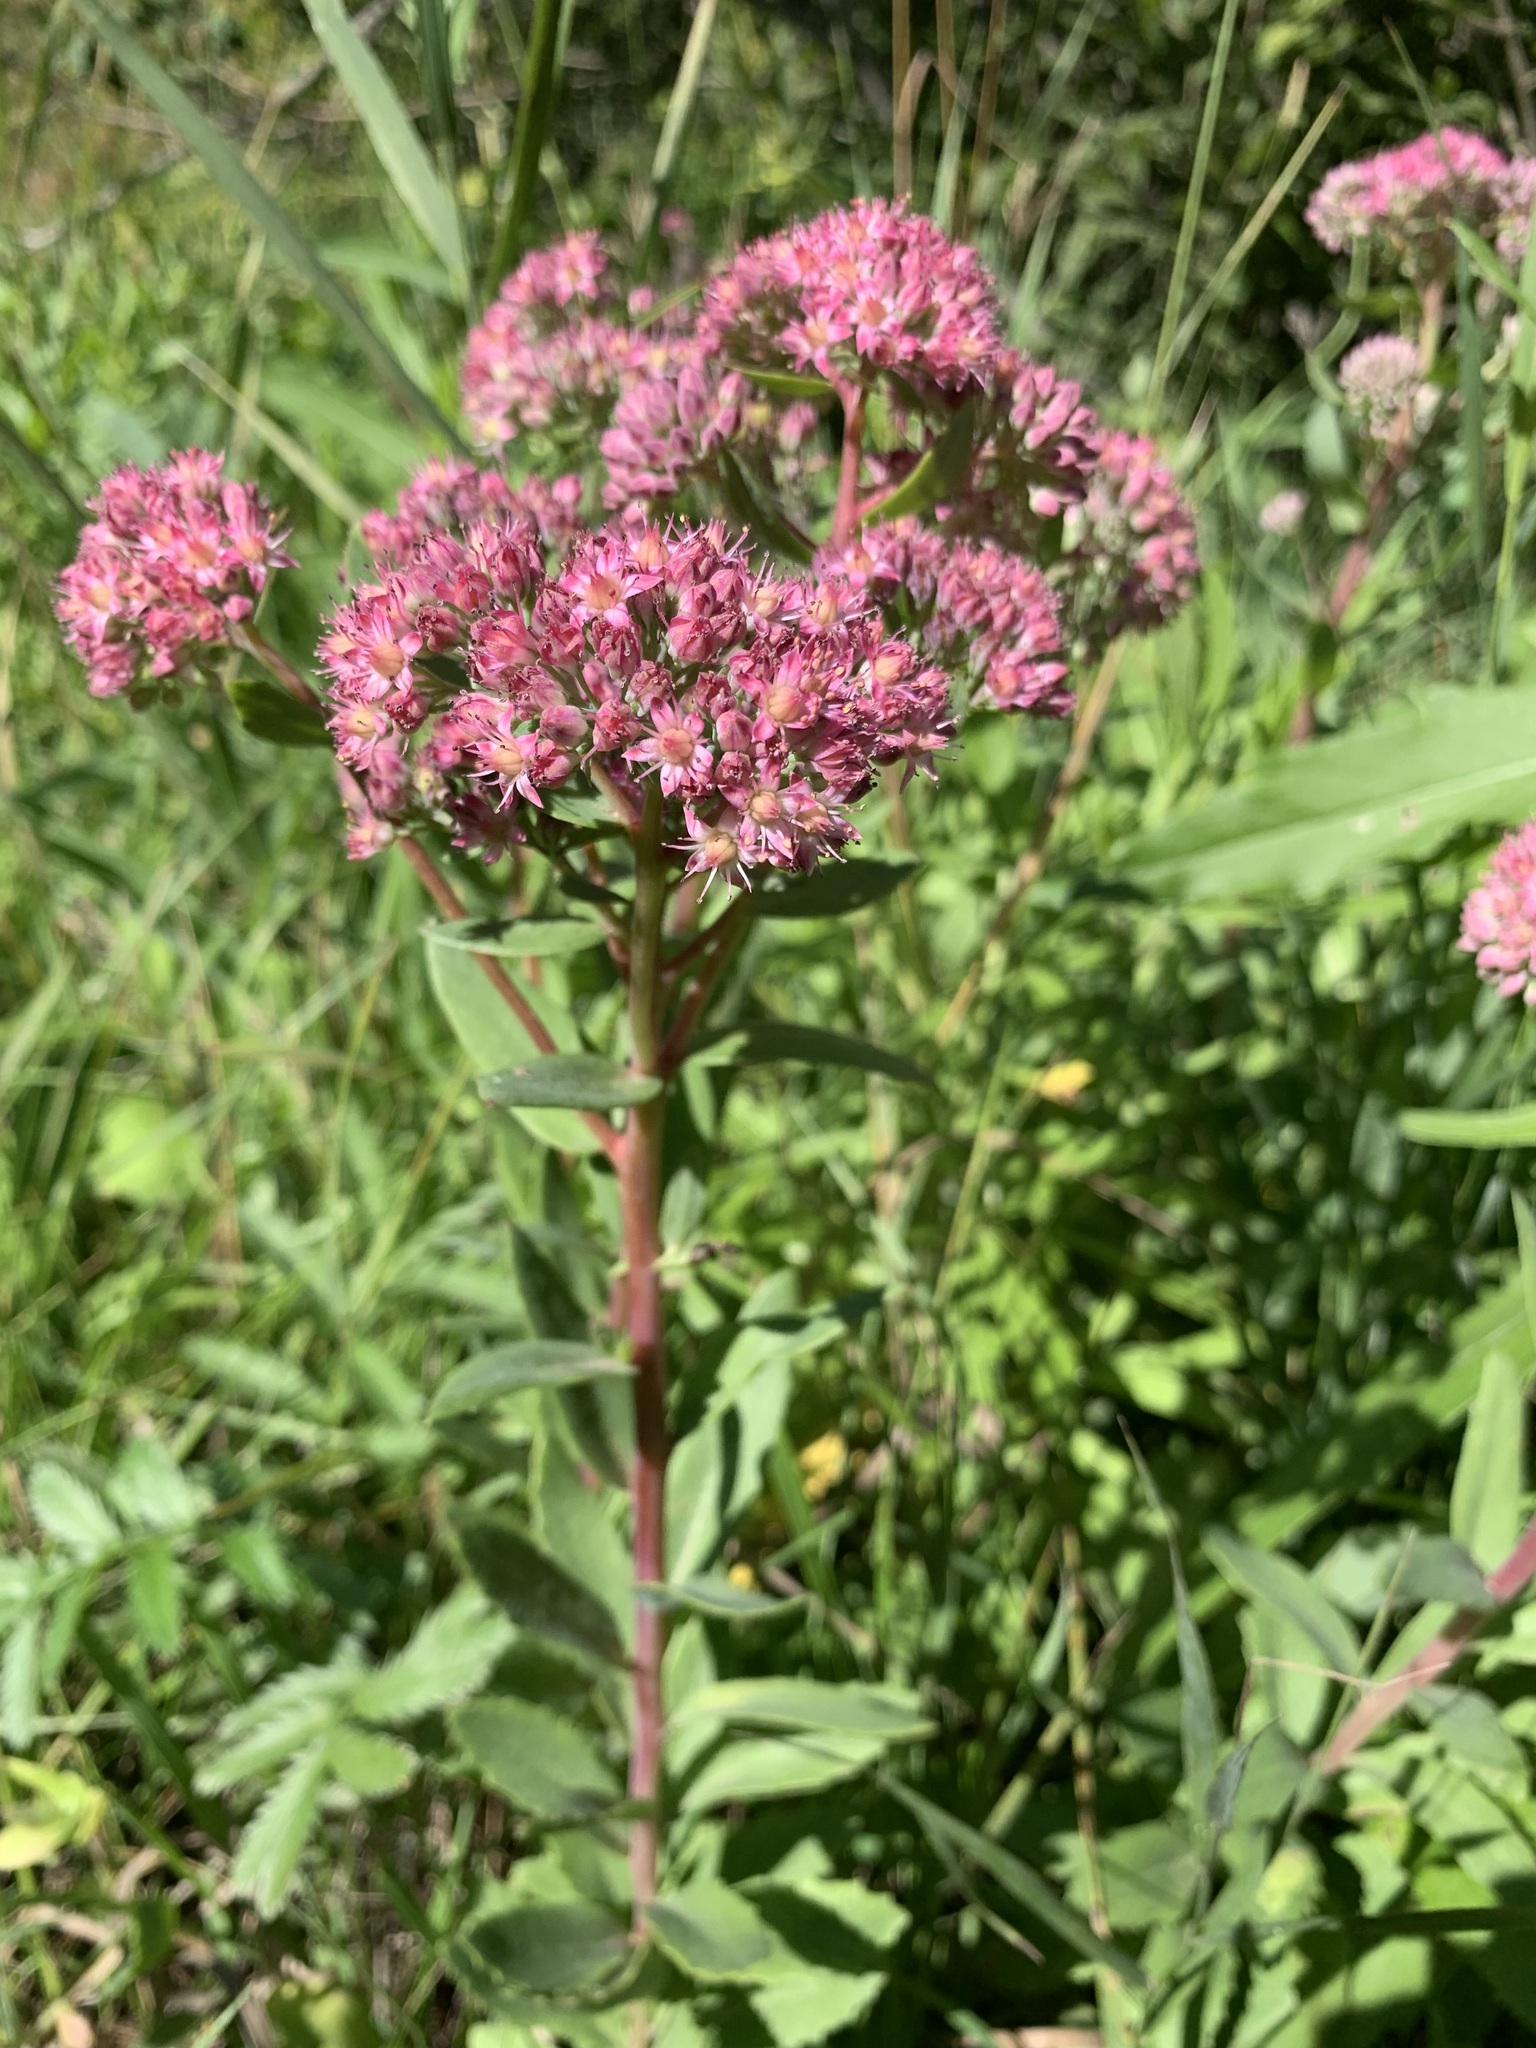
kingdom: Plantae
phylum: Tracheophyta
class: Magnoliopsida
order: Saxifragales
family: Crassulaceae
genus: Hylotelephium
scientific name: Hylotelephium telephium
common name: Live-forever
